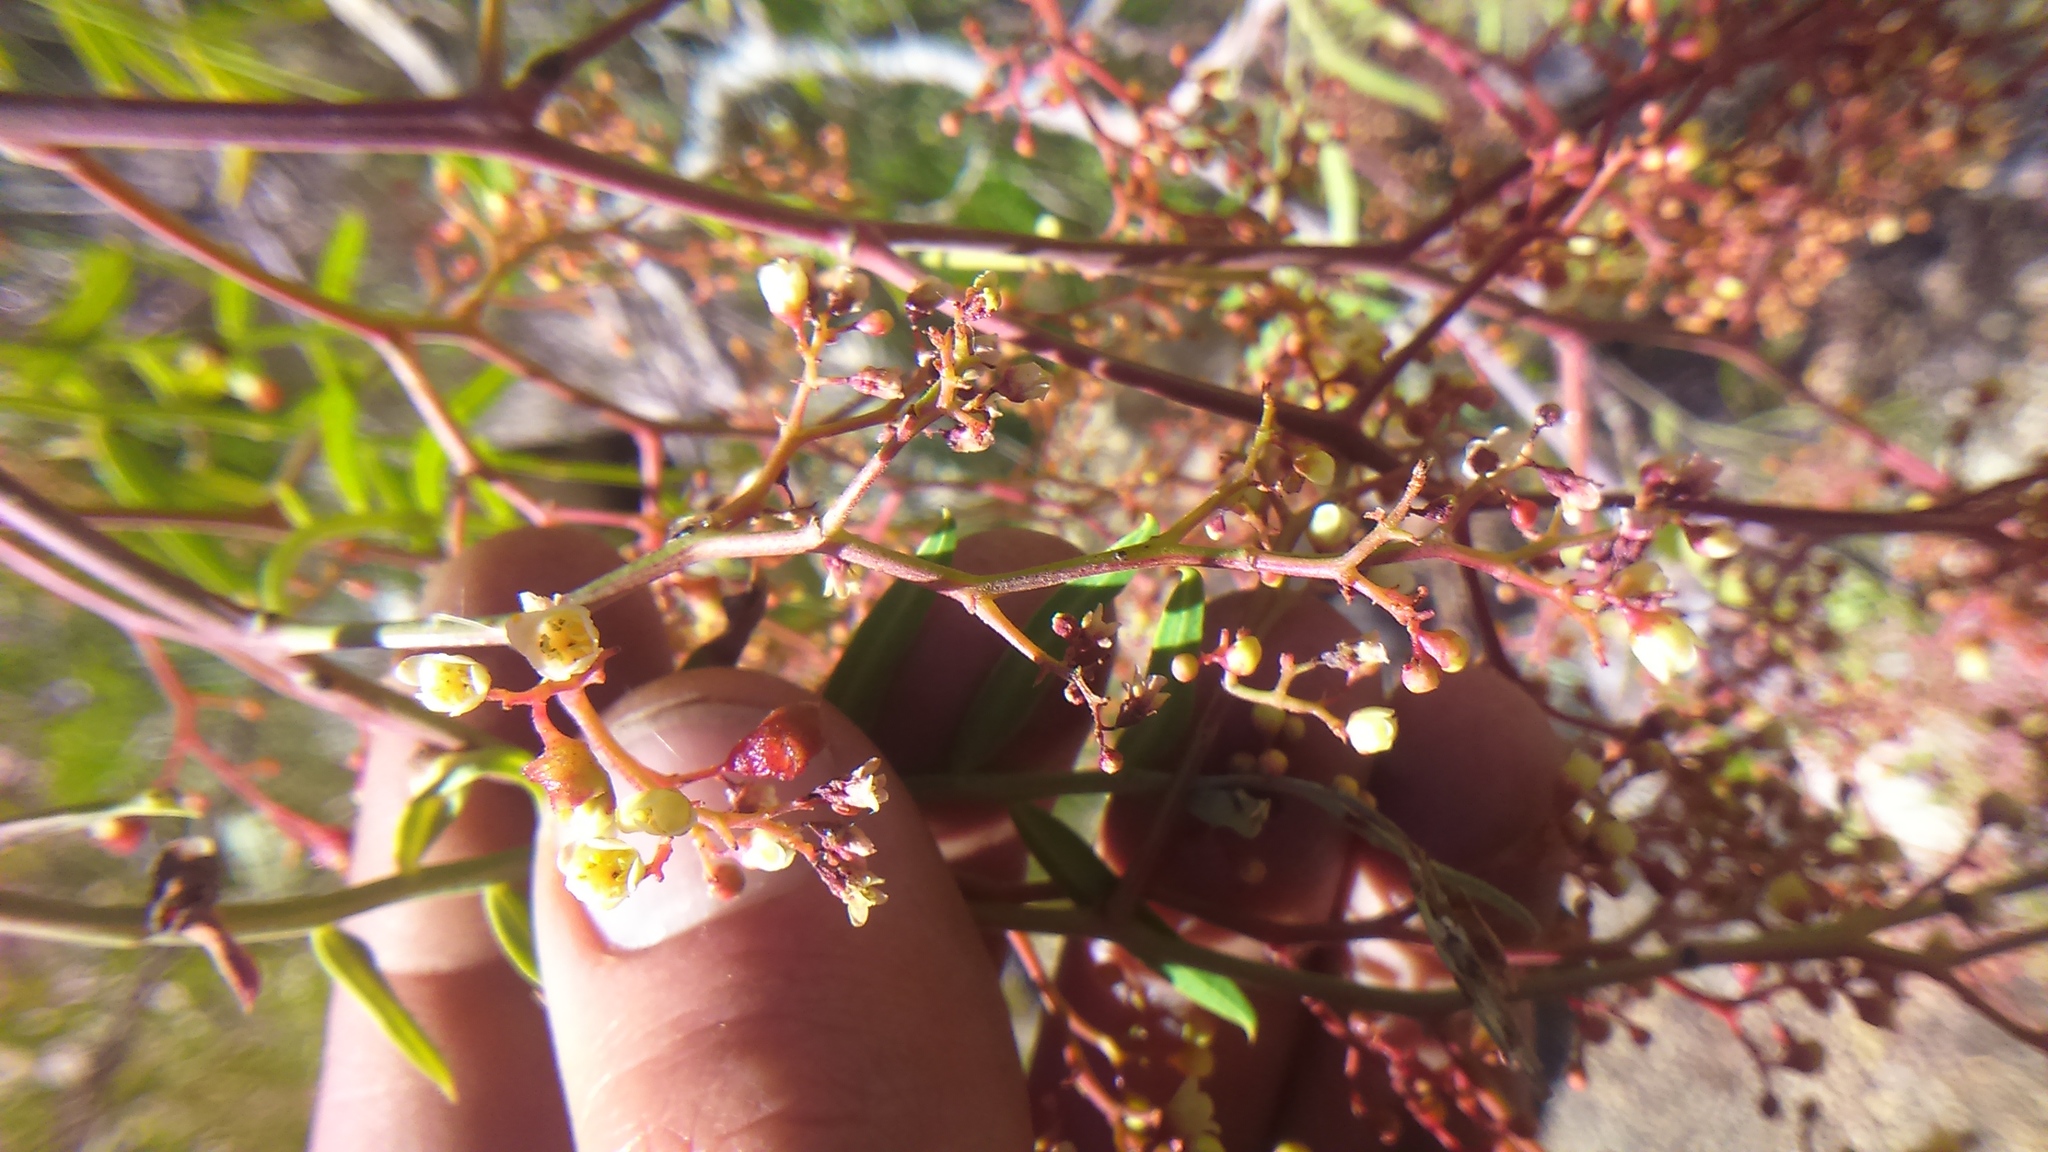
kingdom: Plantae
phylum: Tracheophyta
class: Magnoliopsida
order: Sapindales
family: Anacardiaceae
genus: Schinus
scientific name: Schinus molle
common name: Peruvian peppertree
